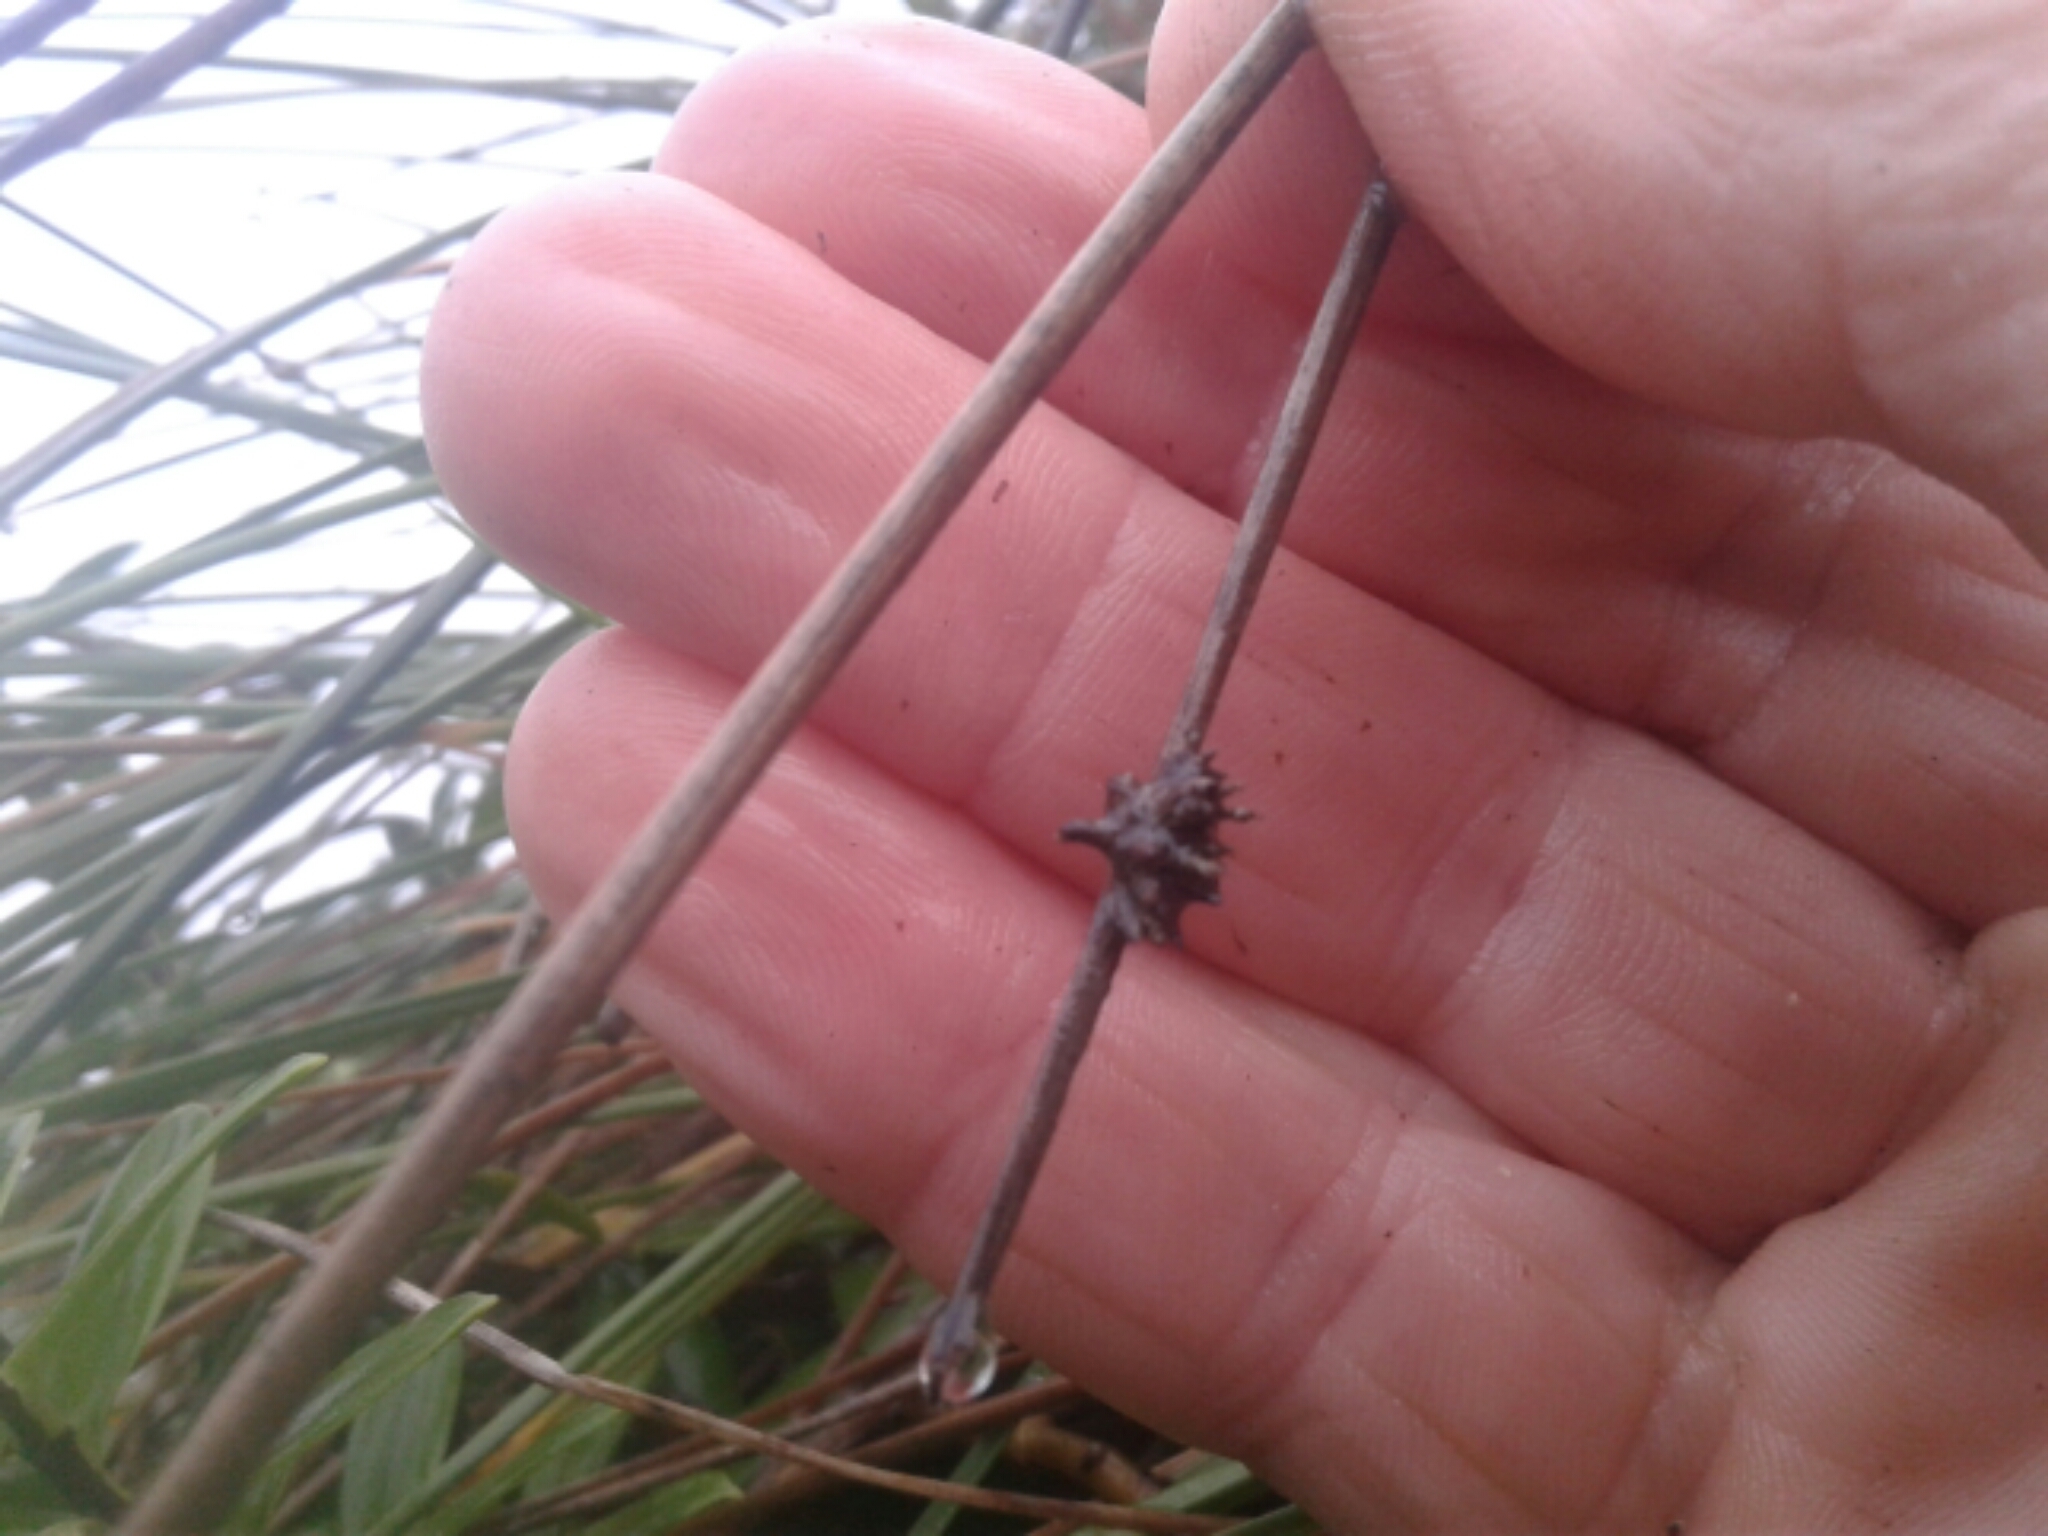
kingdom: Plantae
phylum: Tracheophyta
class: Liliopsida
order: Poales
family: Cyperaceae
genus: Ficinia
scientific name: Ficinia nodosa
